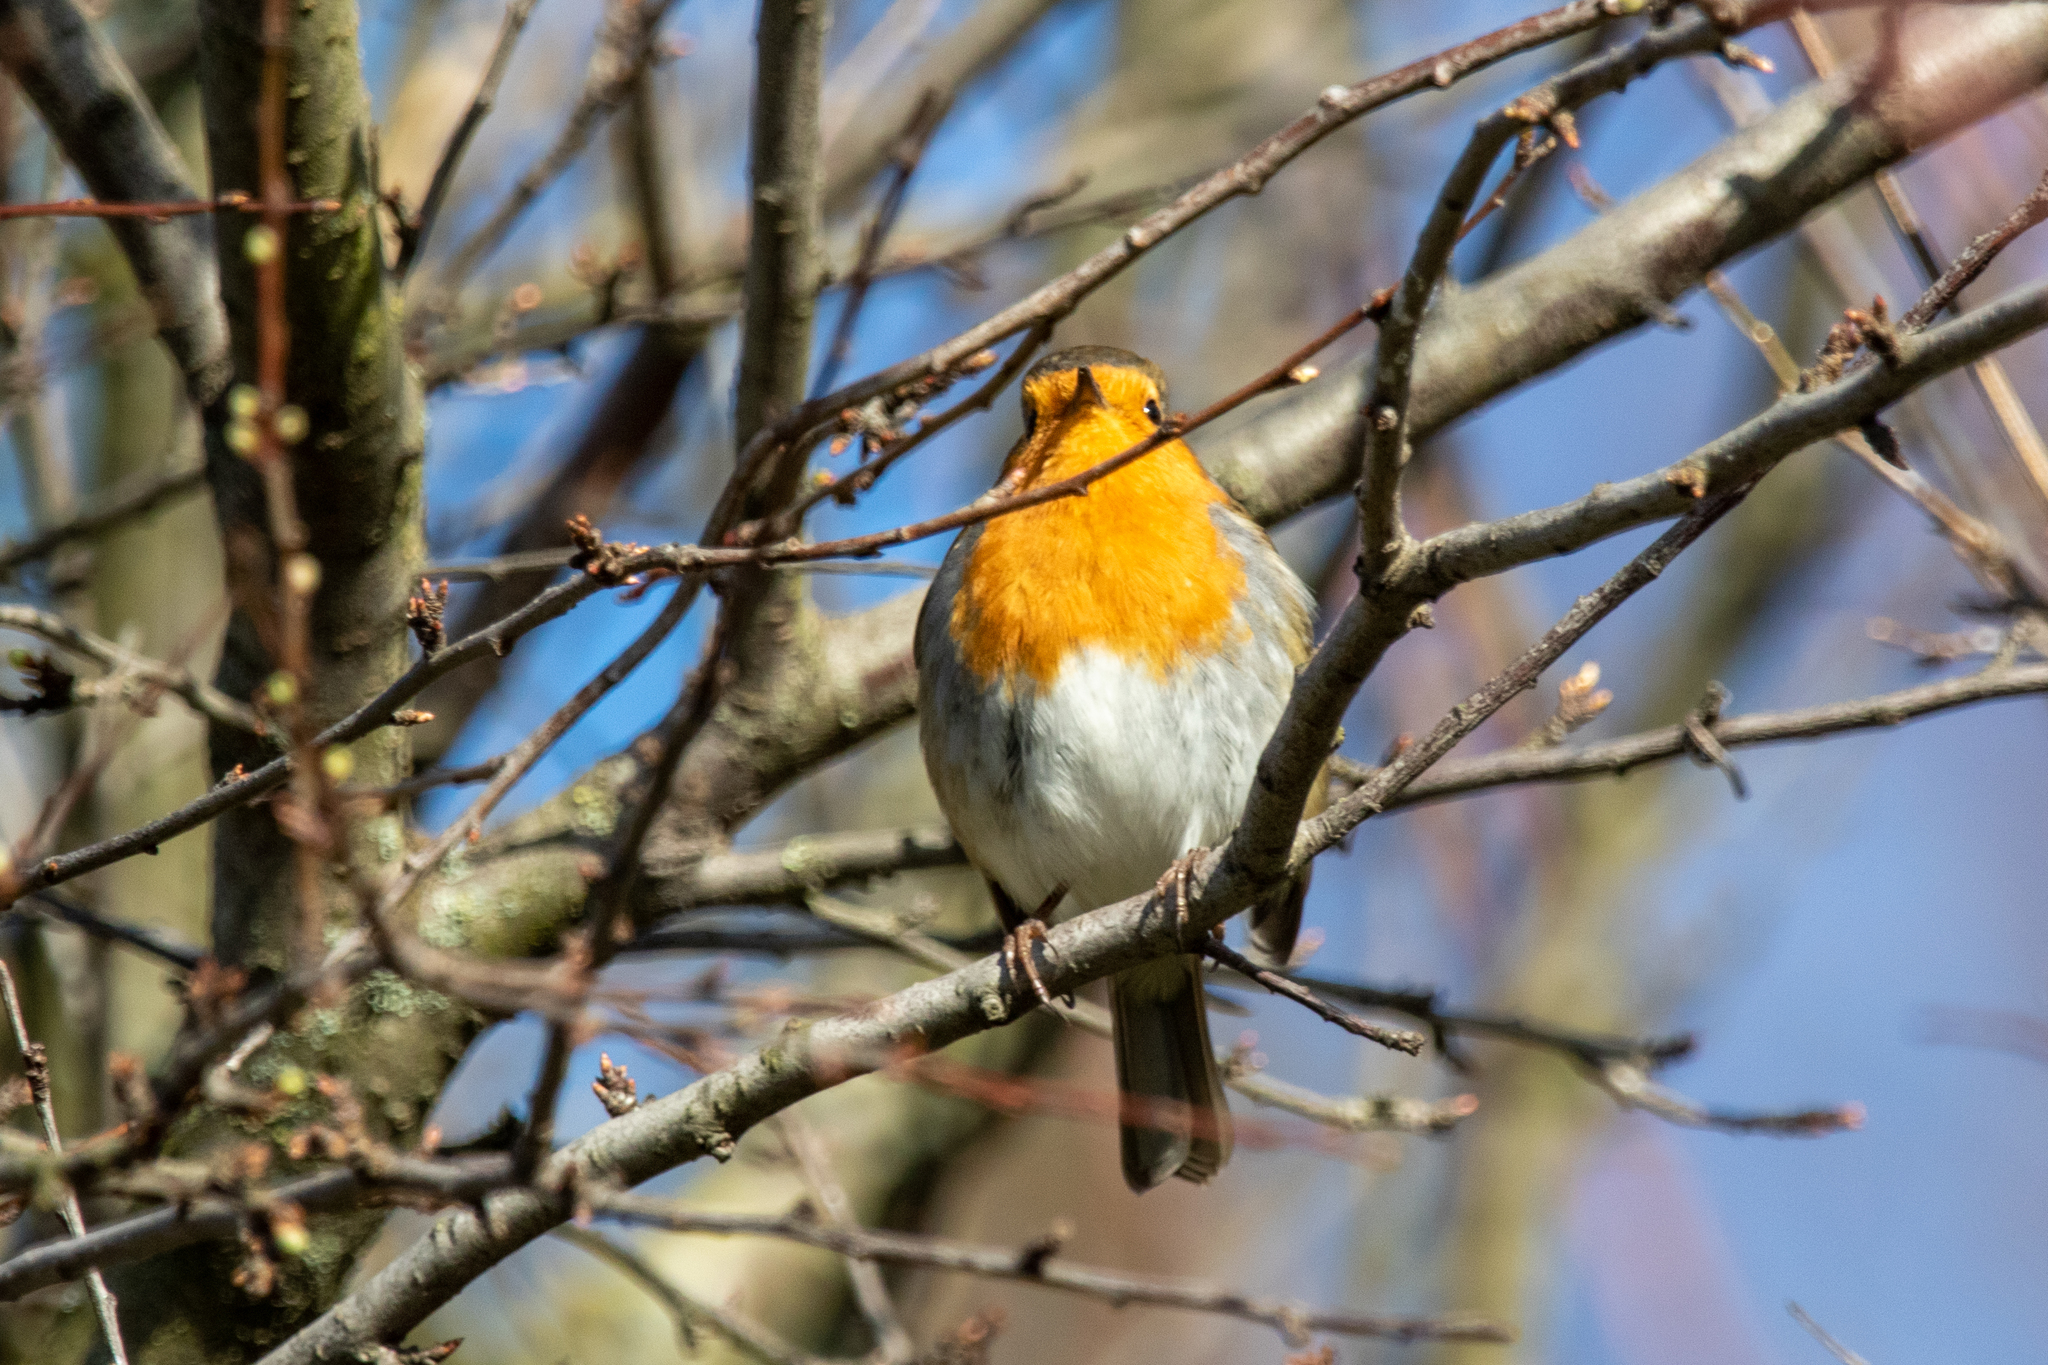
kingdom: Animalia
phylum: Chordata
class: Aves
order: Passeriformes
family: Muscicapidae
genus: Erithacus
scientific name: Erithacus rubecula
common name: European robin
